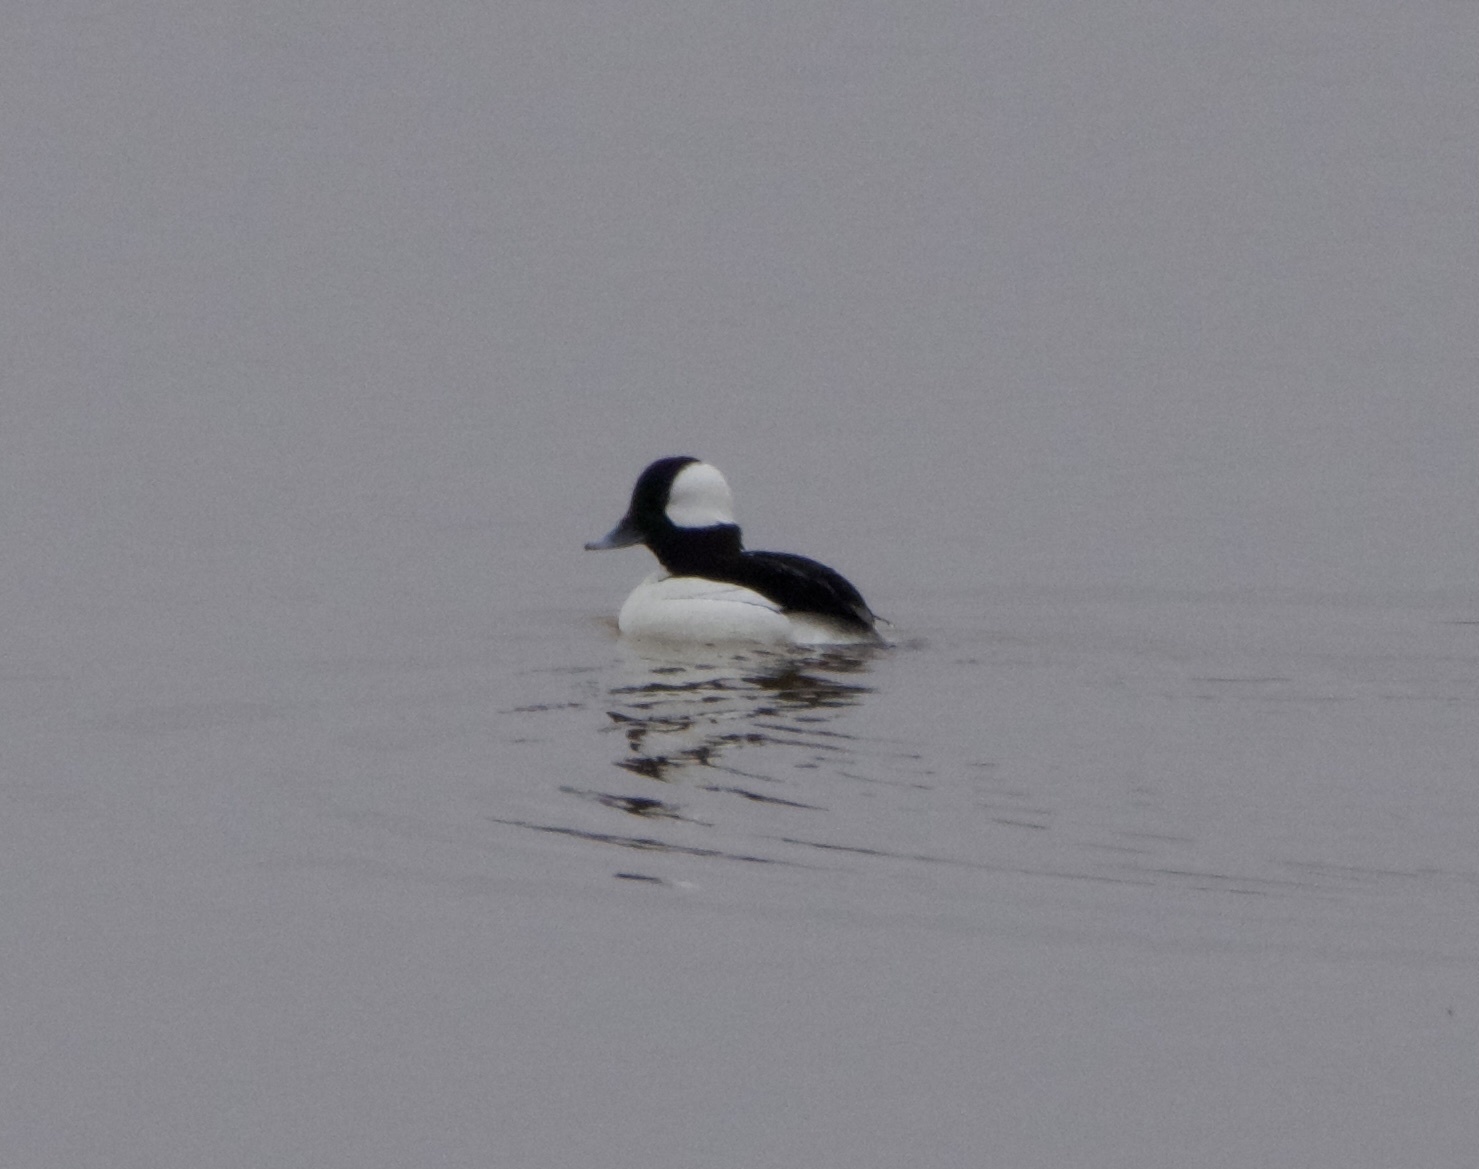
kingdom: Animalia
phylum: Chordata
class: Aves
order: Anseriformes
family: Anatidae
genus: Bucephala
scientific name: Bucephala albeola
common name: Bufflehead
